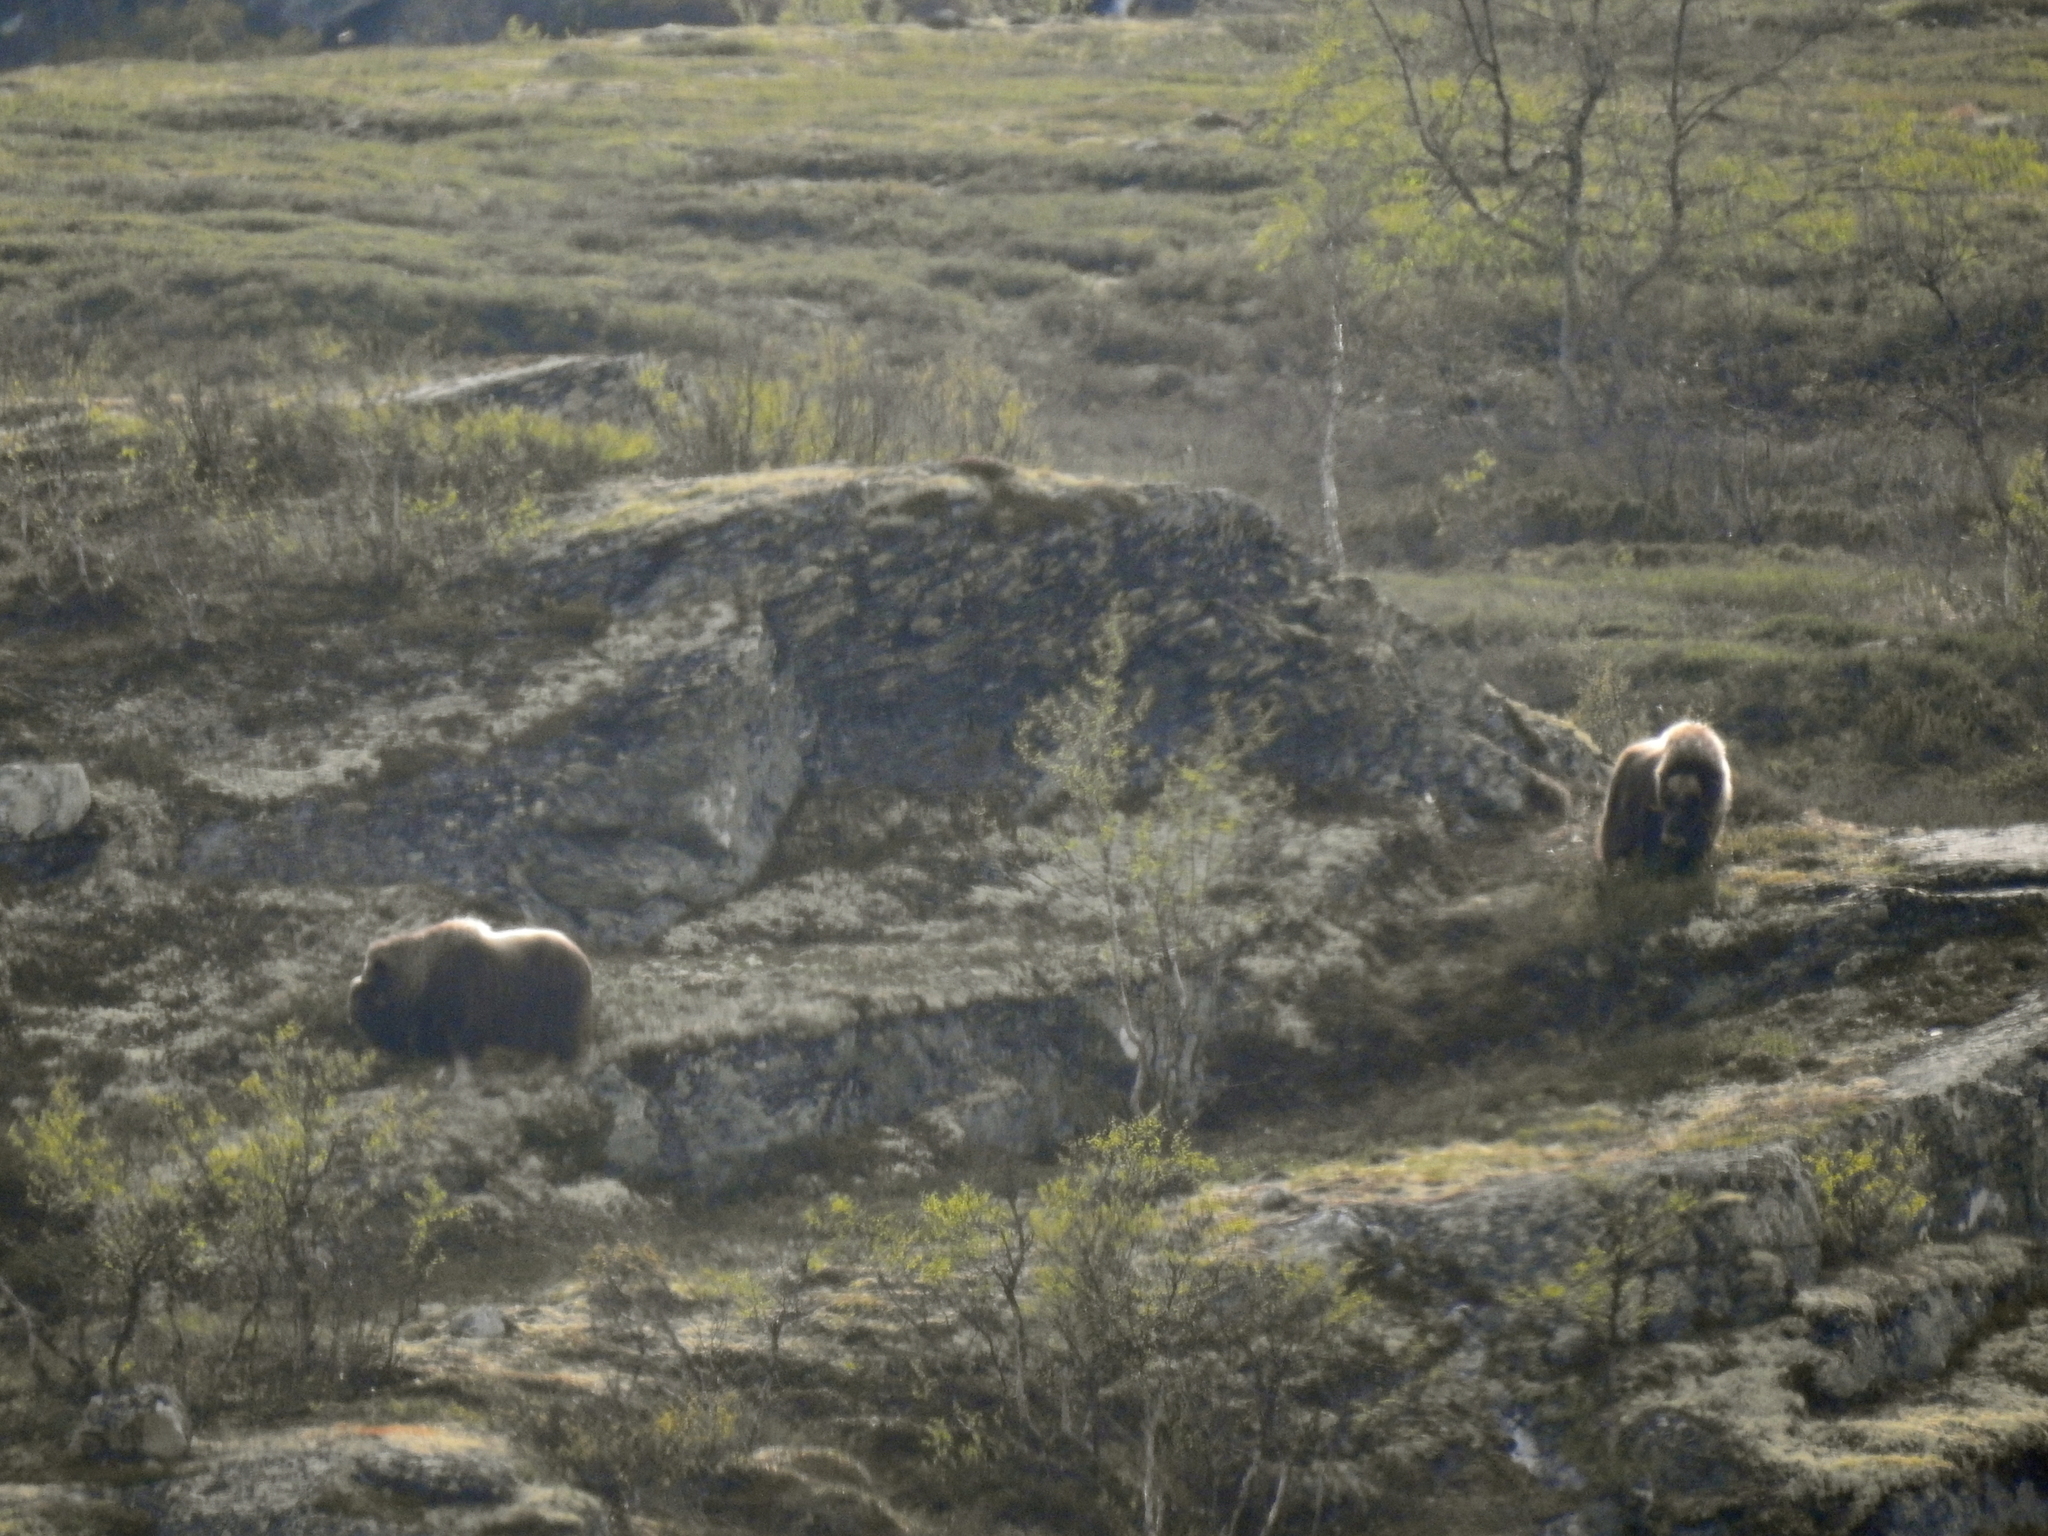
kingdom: Animalia
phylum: Chordata
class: Mammalia
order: Artiodactyla
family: Bovidae
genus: Ovibos
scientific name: Ovibos moschatus
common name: Muskox
